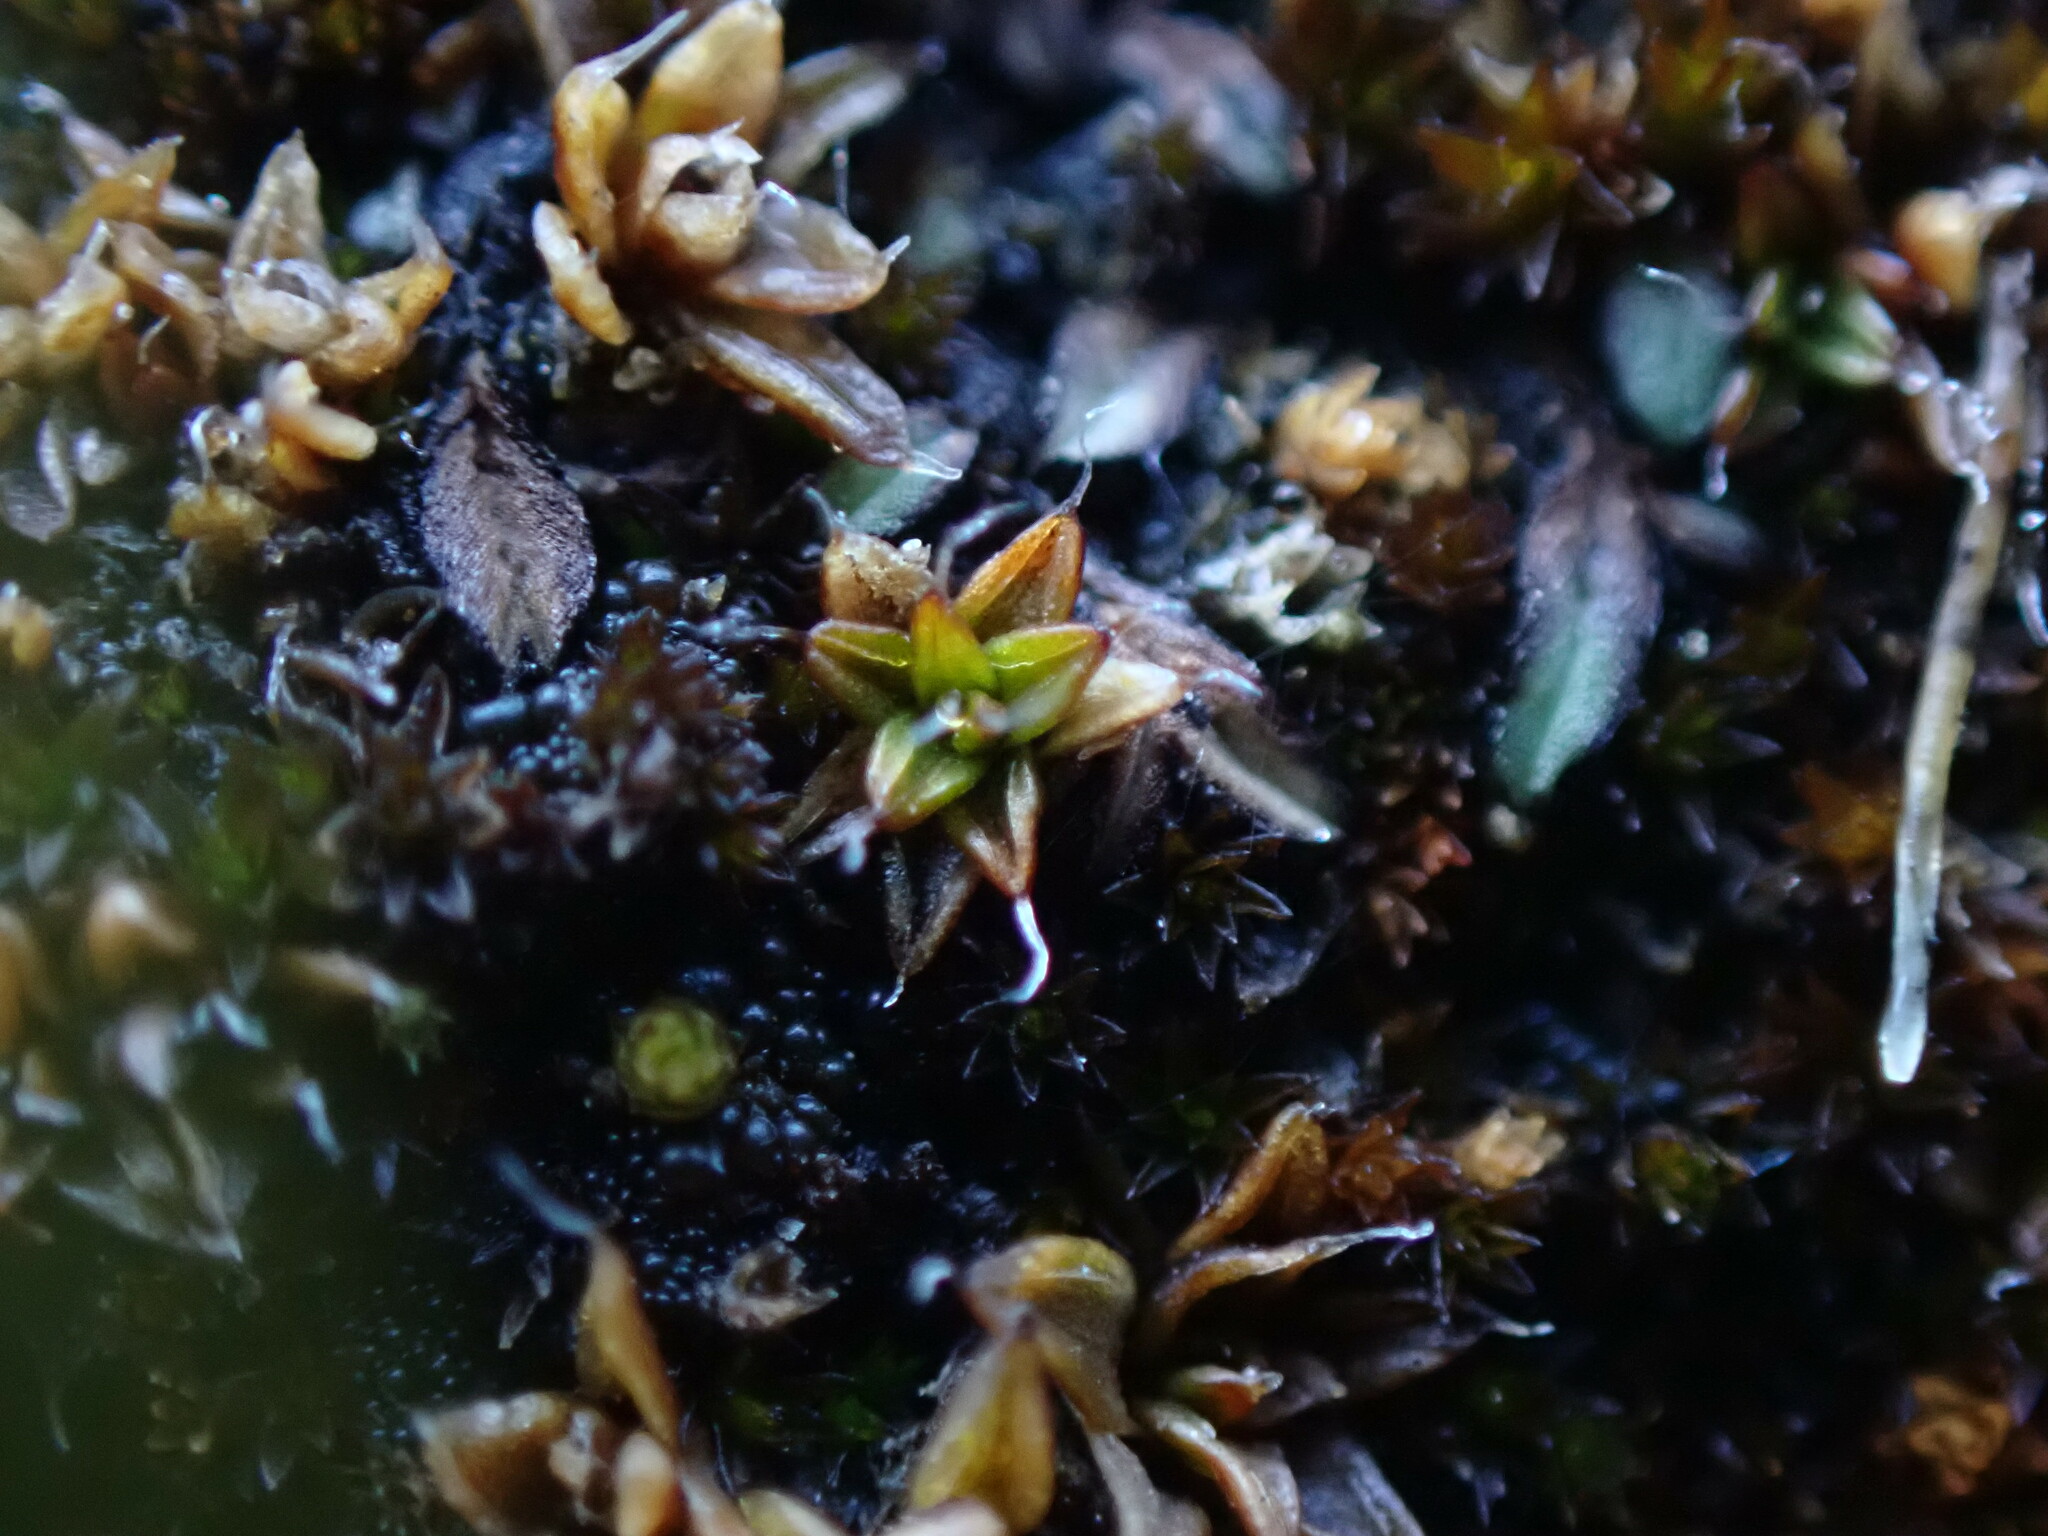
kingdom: Plantae
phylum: Bryophyta
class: Bryopsida
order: Pottiales
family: Pottiaceae
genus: Aloina
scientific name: Aloina bifrons
